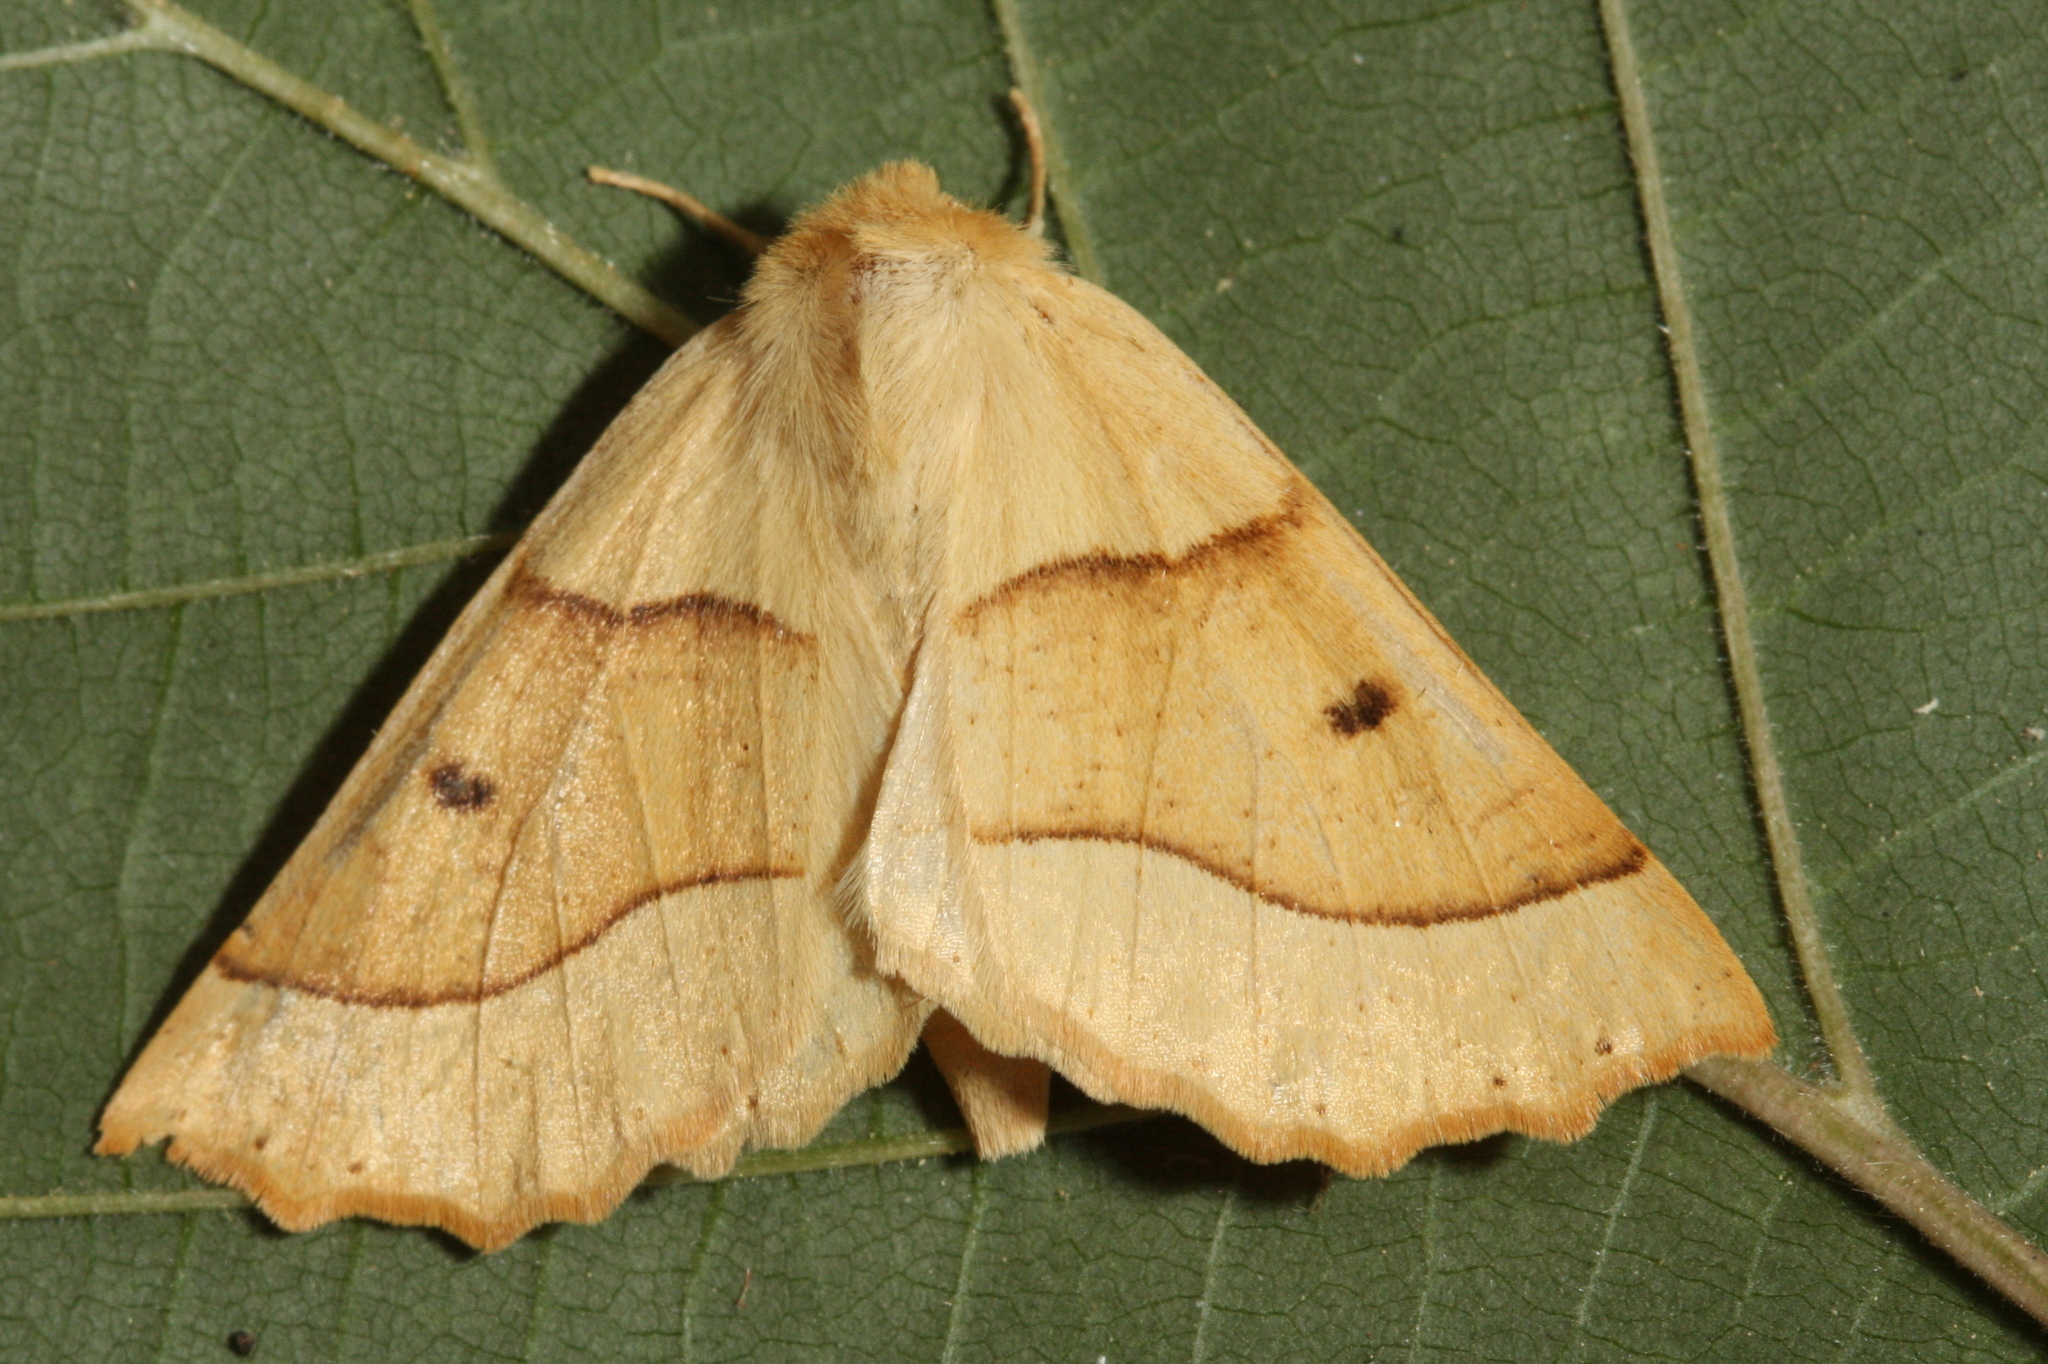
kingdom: Animalia
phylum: Arthropoda
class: Insecta
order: Lepidoptera
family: Geometridae
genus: Crocallis
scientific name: Crocallis elinguaria
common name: Scalloped oak
